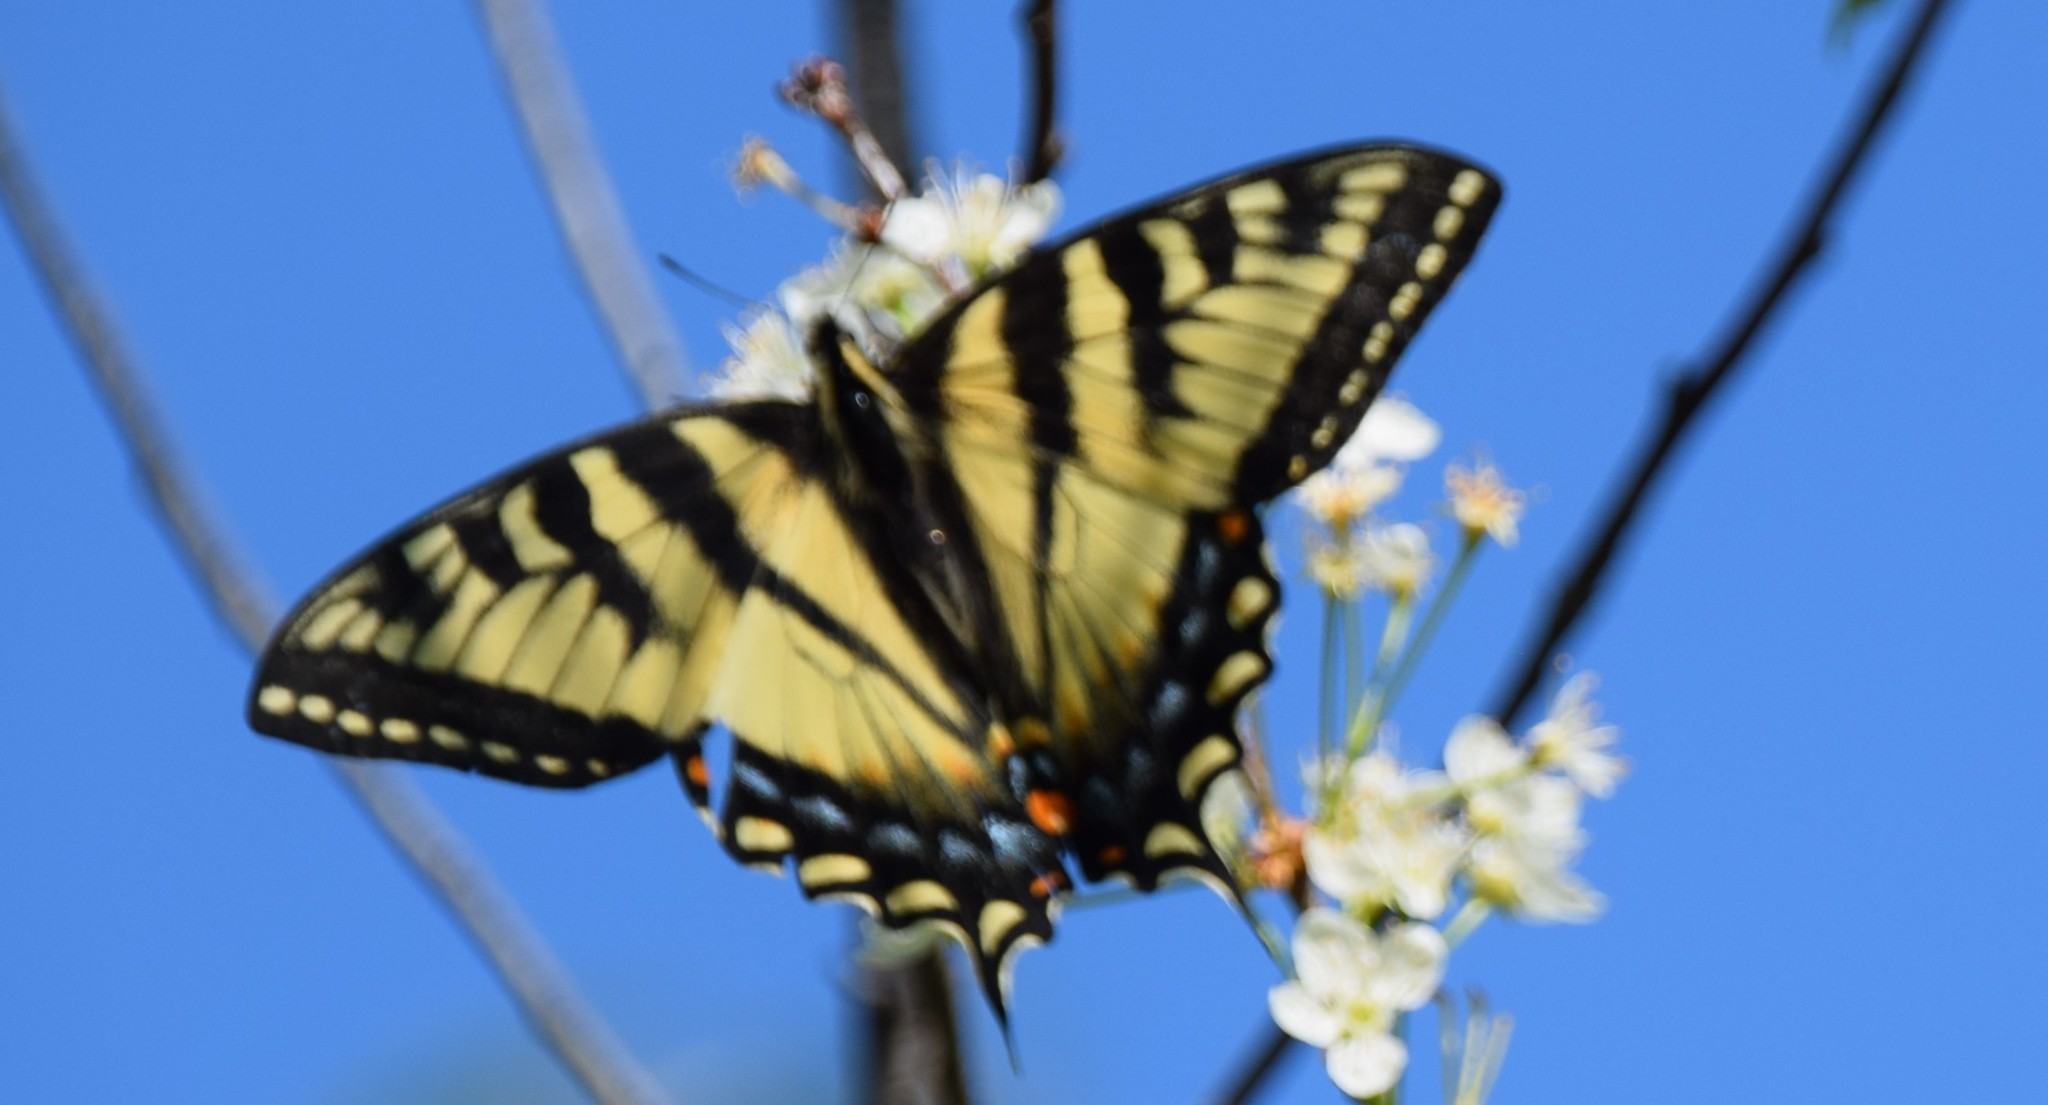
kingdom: Animalia
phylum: Arthropoda
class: Insecta
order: Lepidoptera
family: Papilionidae
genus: Papilio
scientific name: Papilio canadensis
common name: Canadian tiger swallowtail
